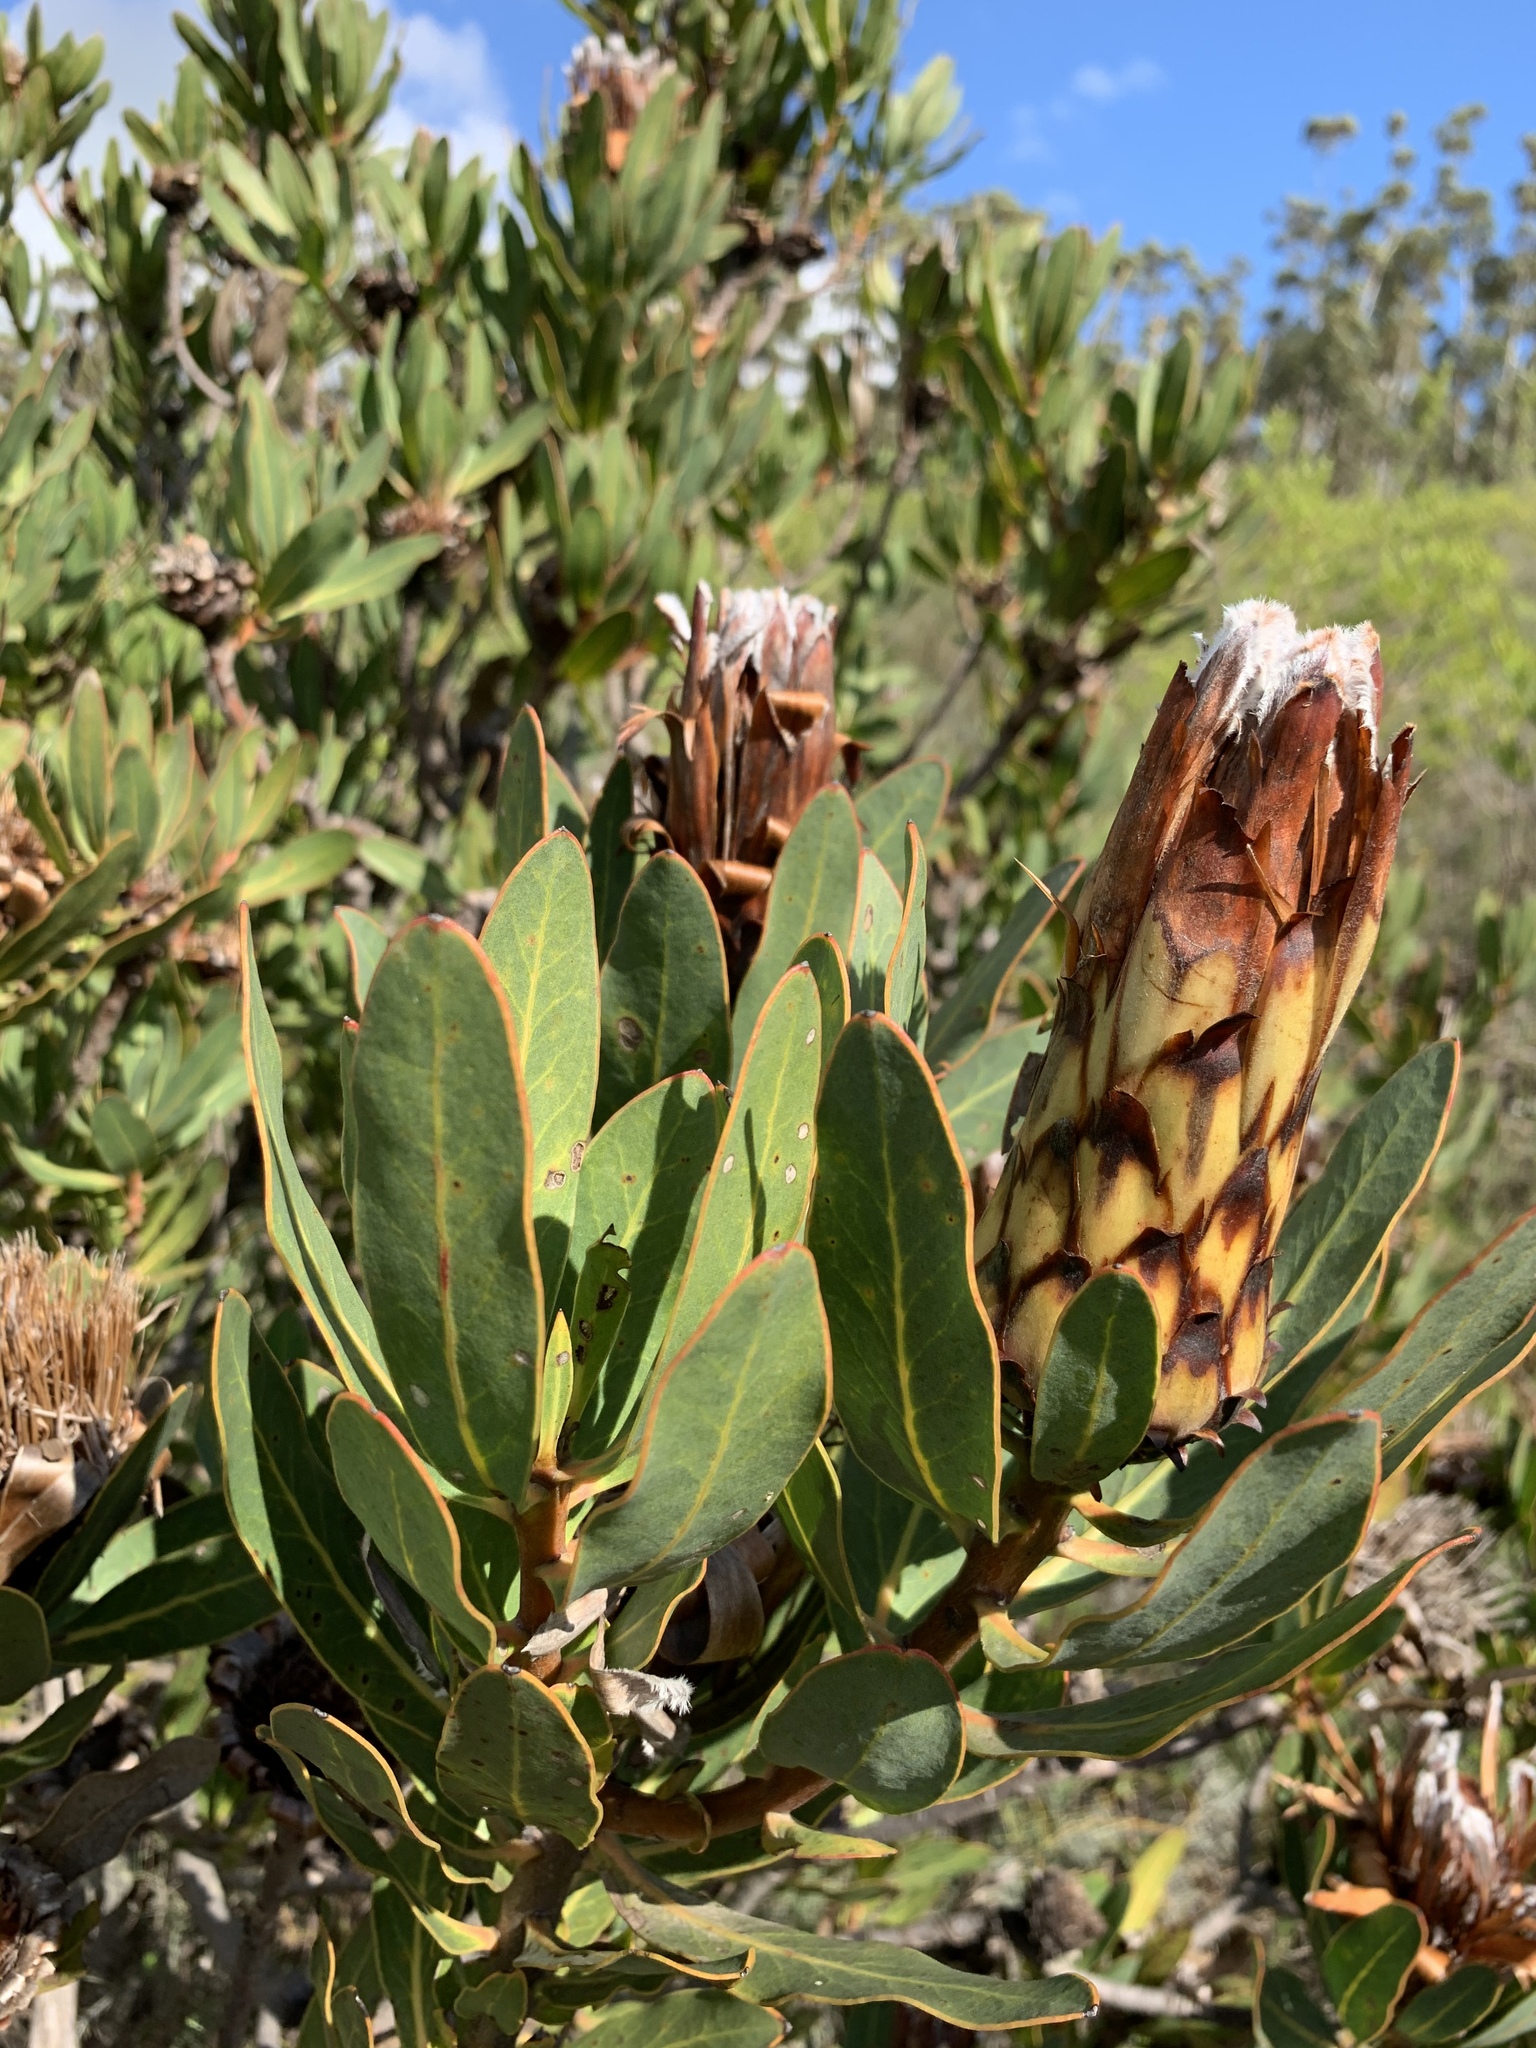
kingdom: Plantae
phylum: Tracheophyta
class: Magnoliopsida
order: Proteales
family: Proteaceae
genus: Protea
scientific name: Protea laurifolia
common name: Grey-leaf sugarbsh
